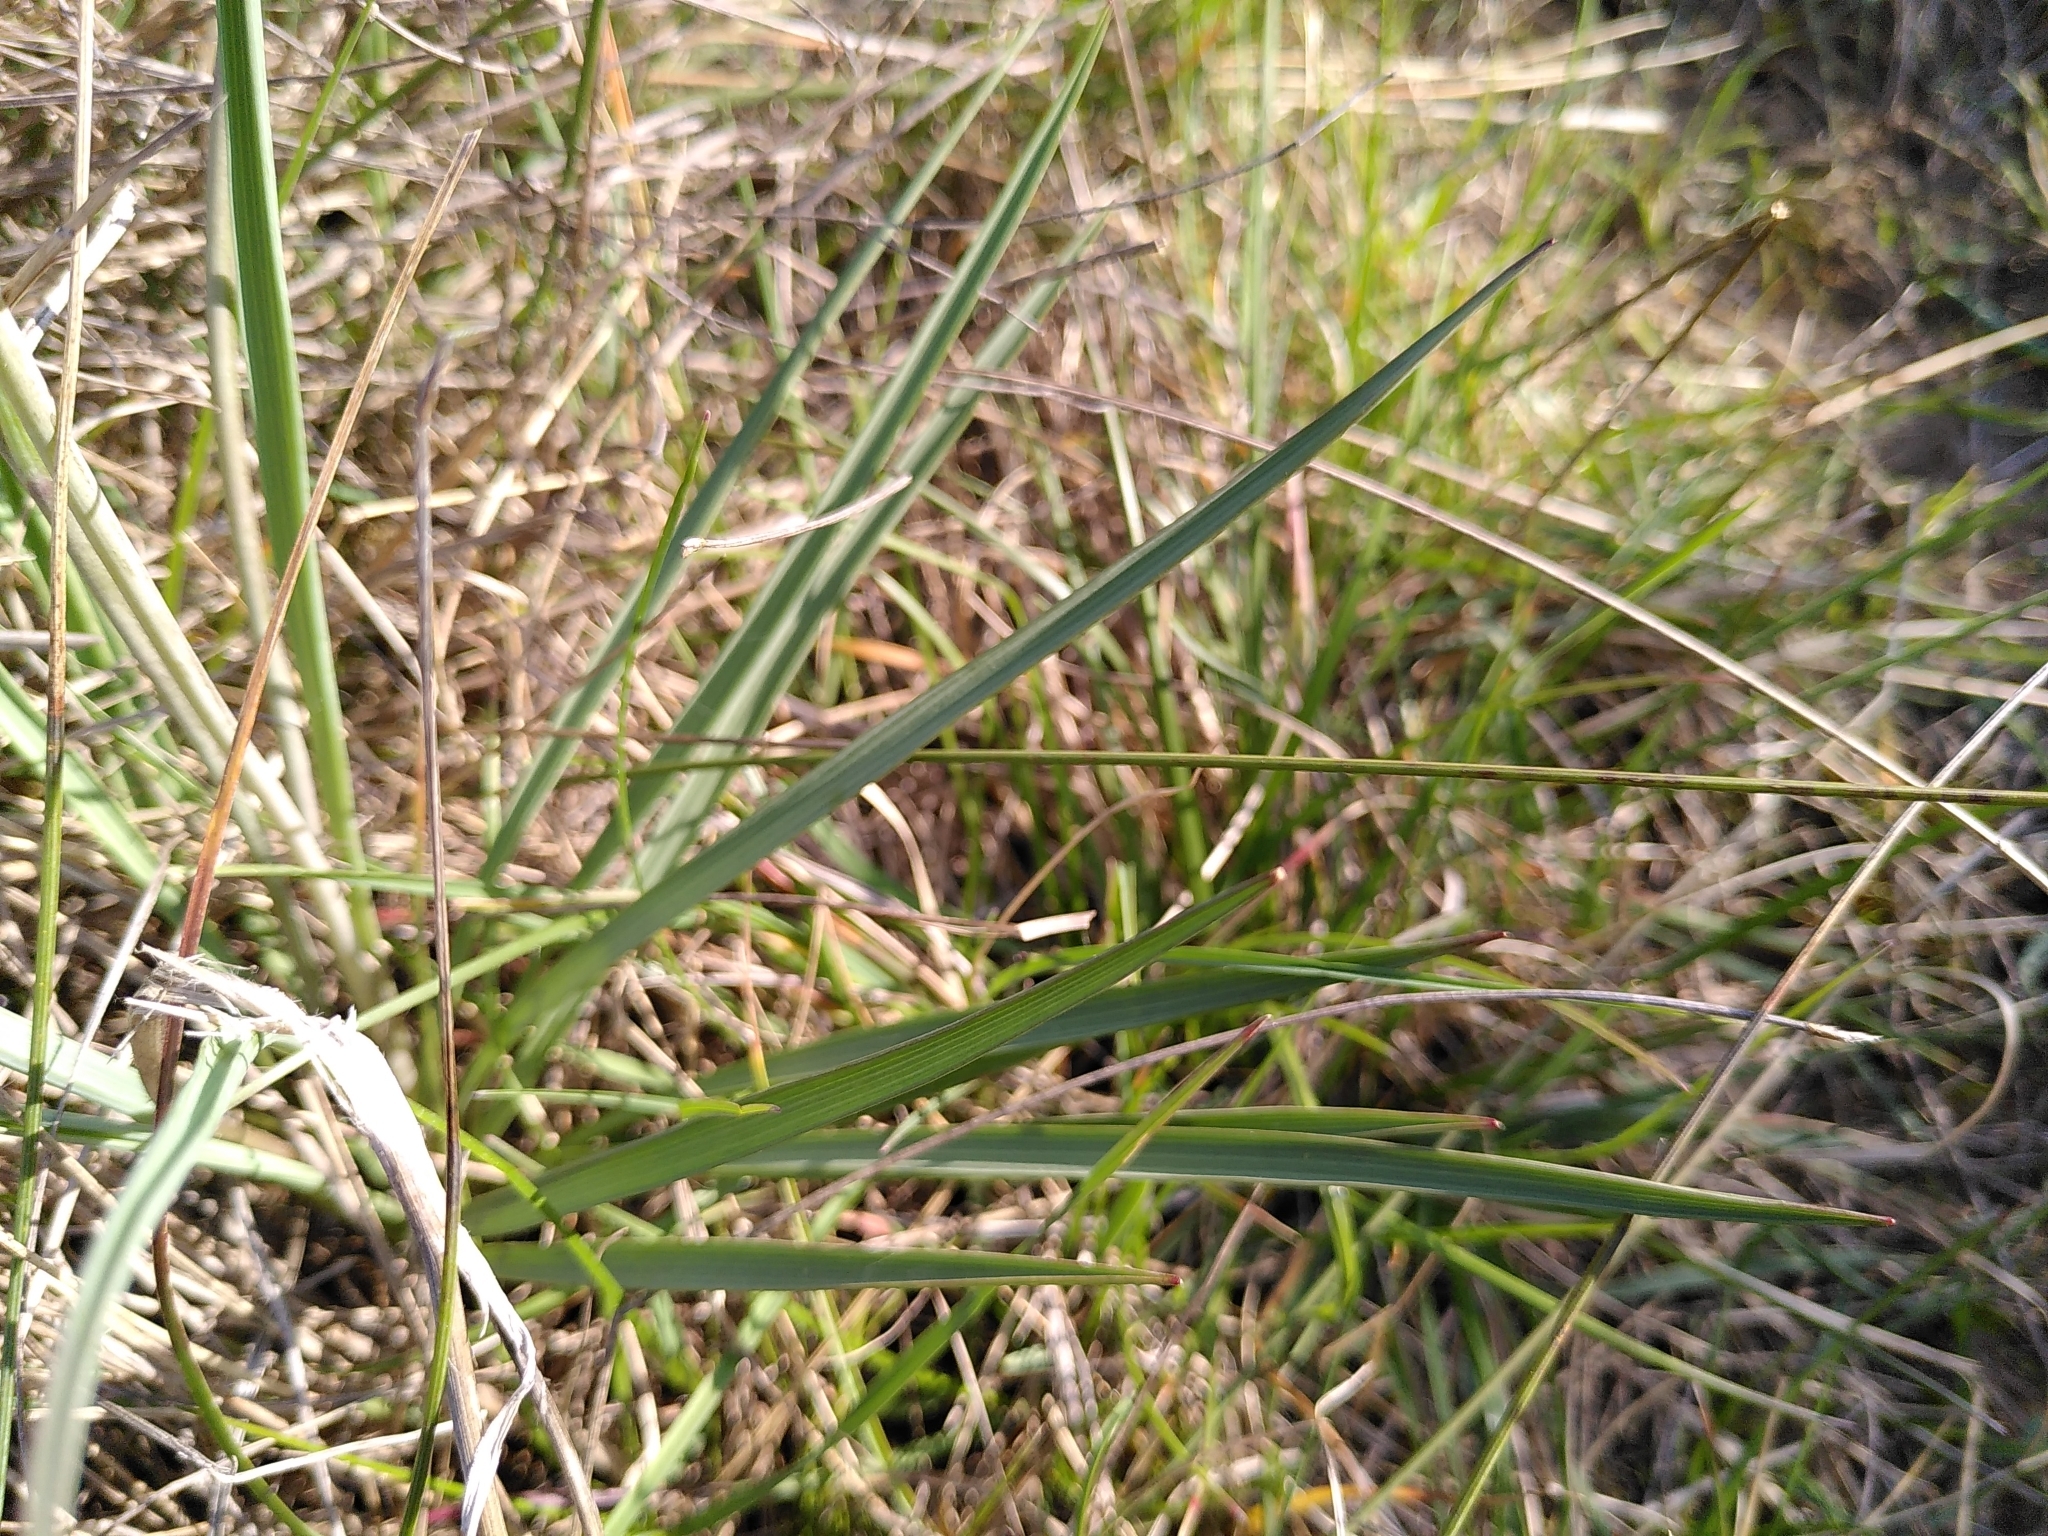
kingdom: Plantae
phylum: Tracheophyta
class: Magnoliopsida
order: Ranunculales
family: Ranunculaceae
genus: Ranunculus
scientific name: Ranunculus gramineus
